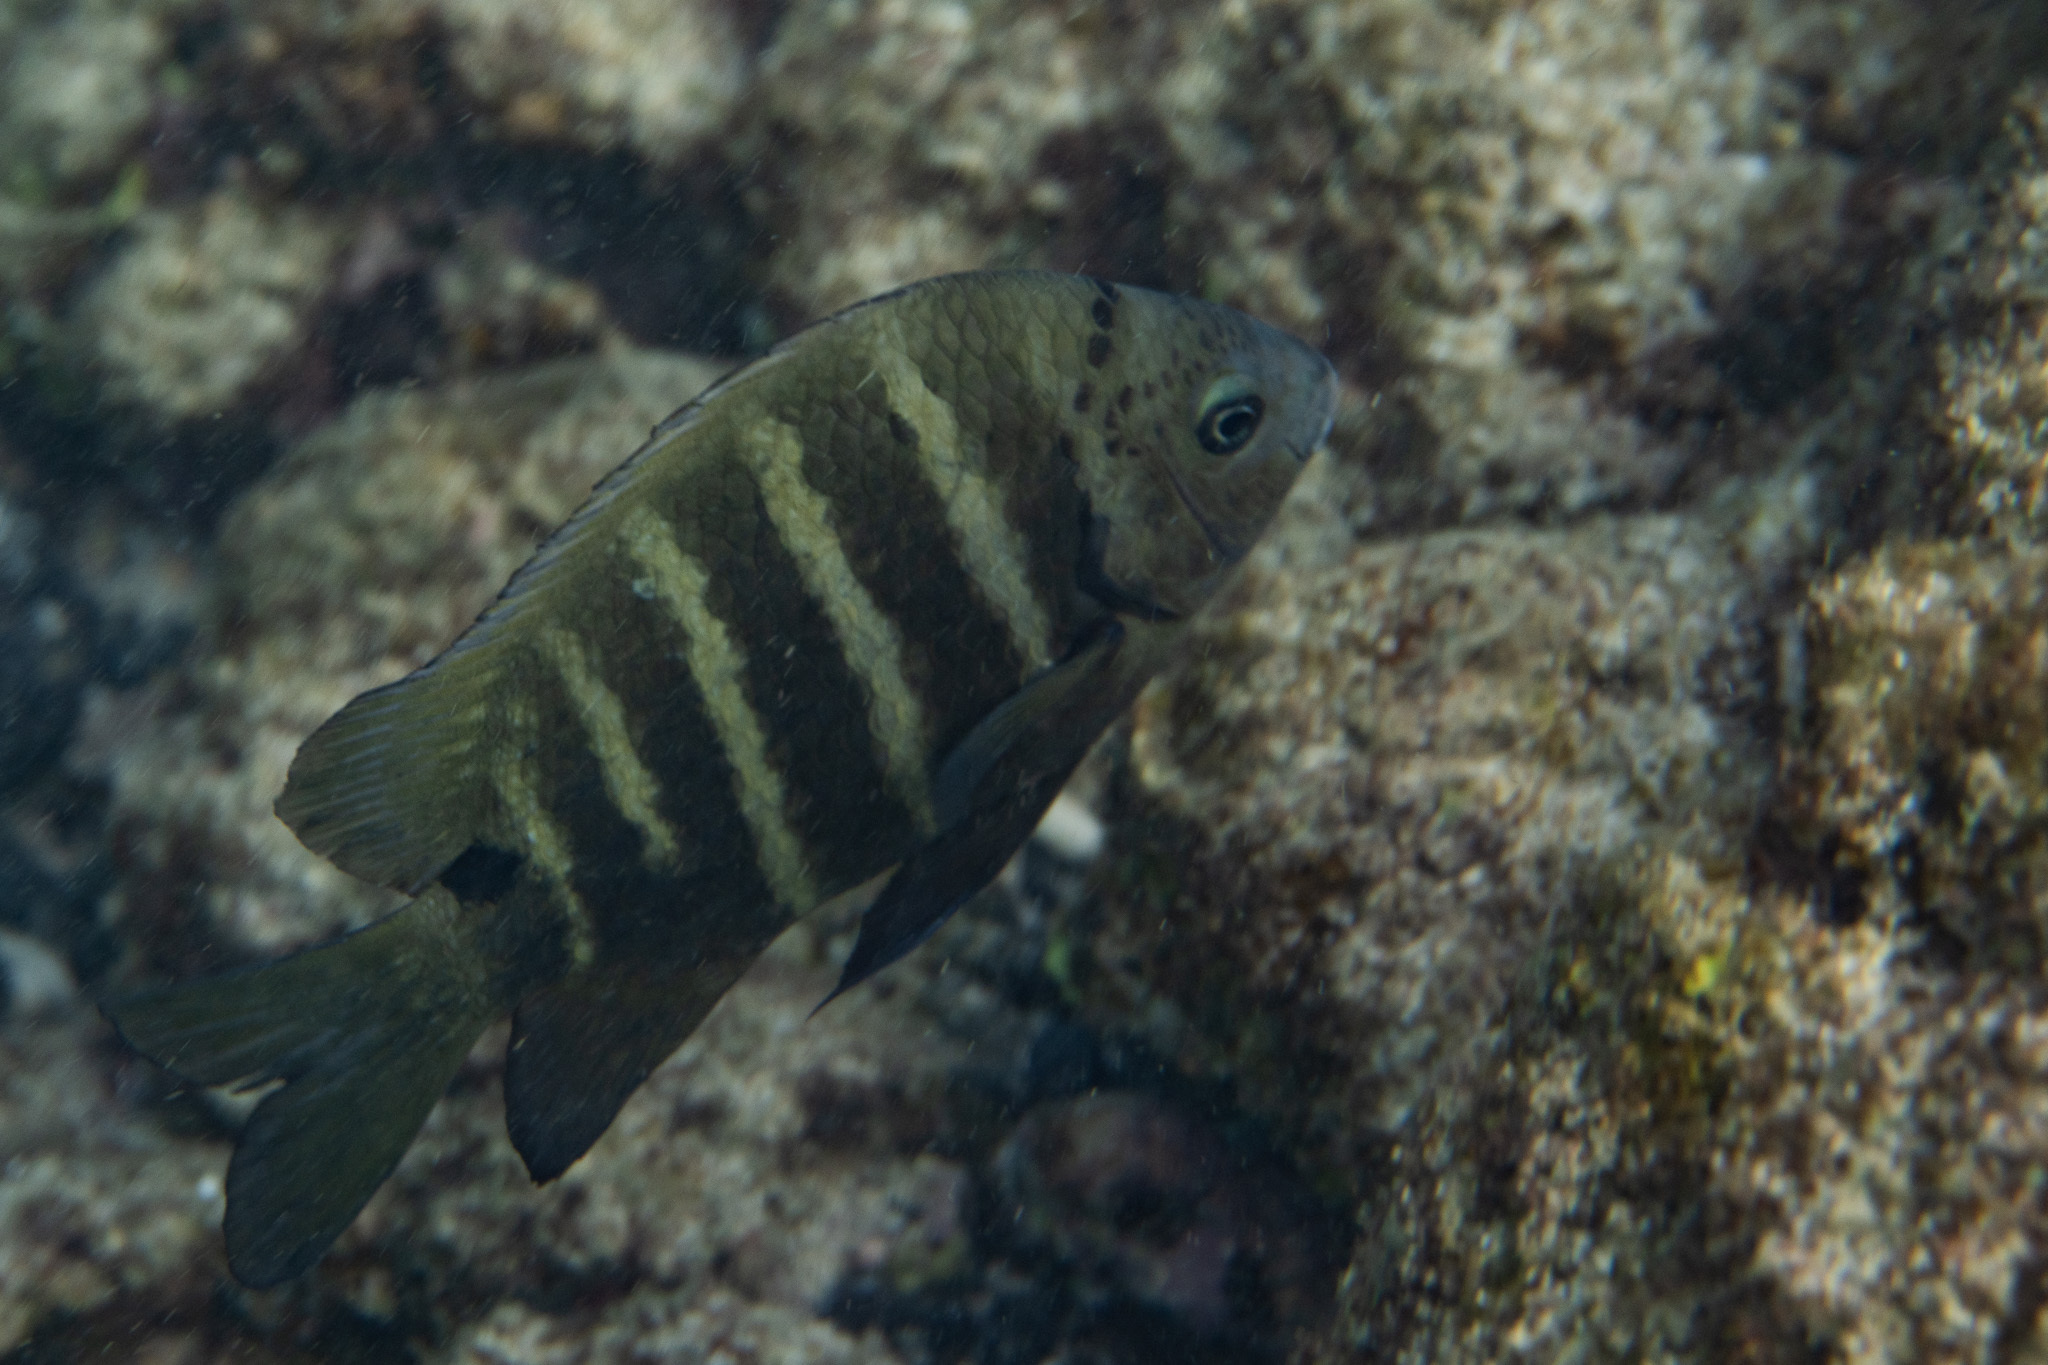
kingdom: Animalia
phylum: Chordata
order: Perciformes
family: Pomacentridae
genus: Abudefduf
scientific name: Abudefduf sordidus
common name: Blackspot sergeant
